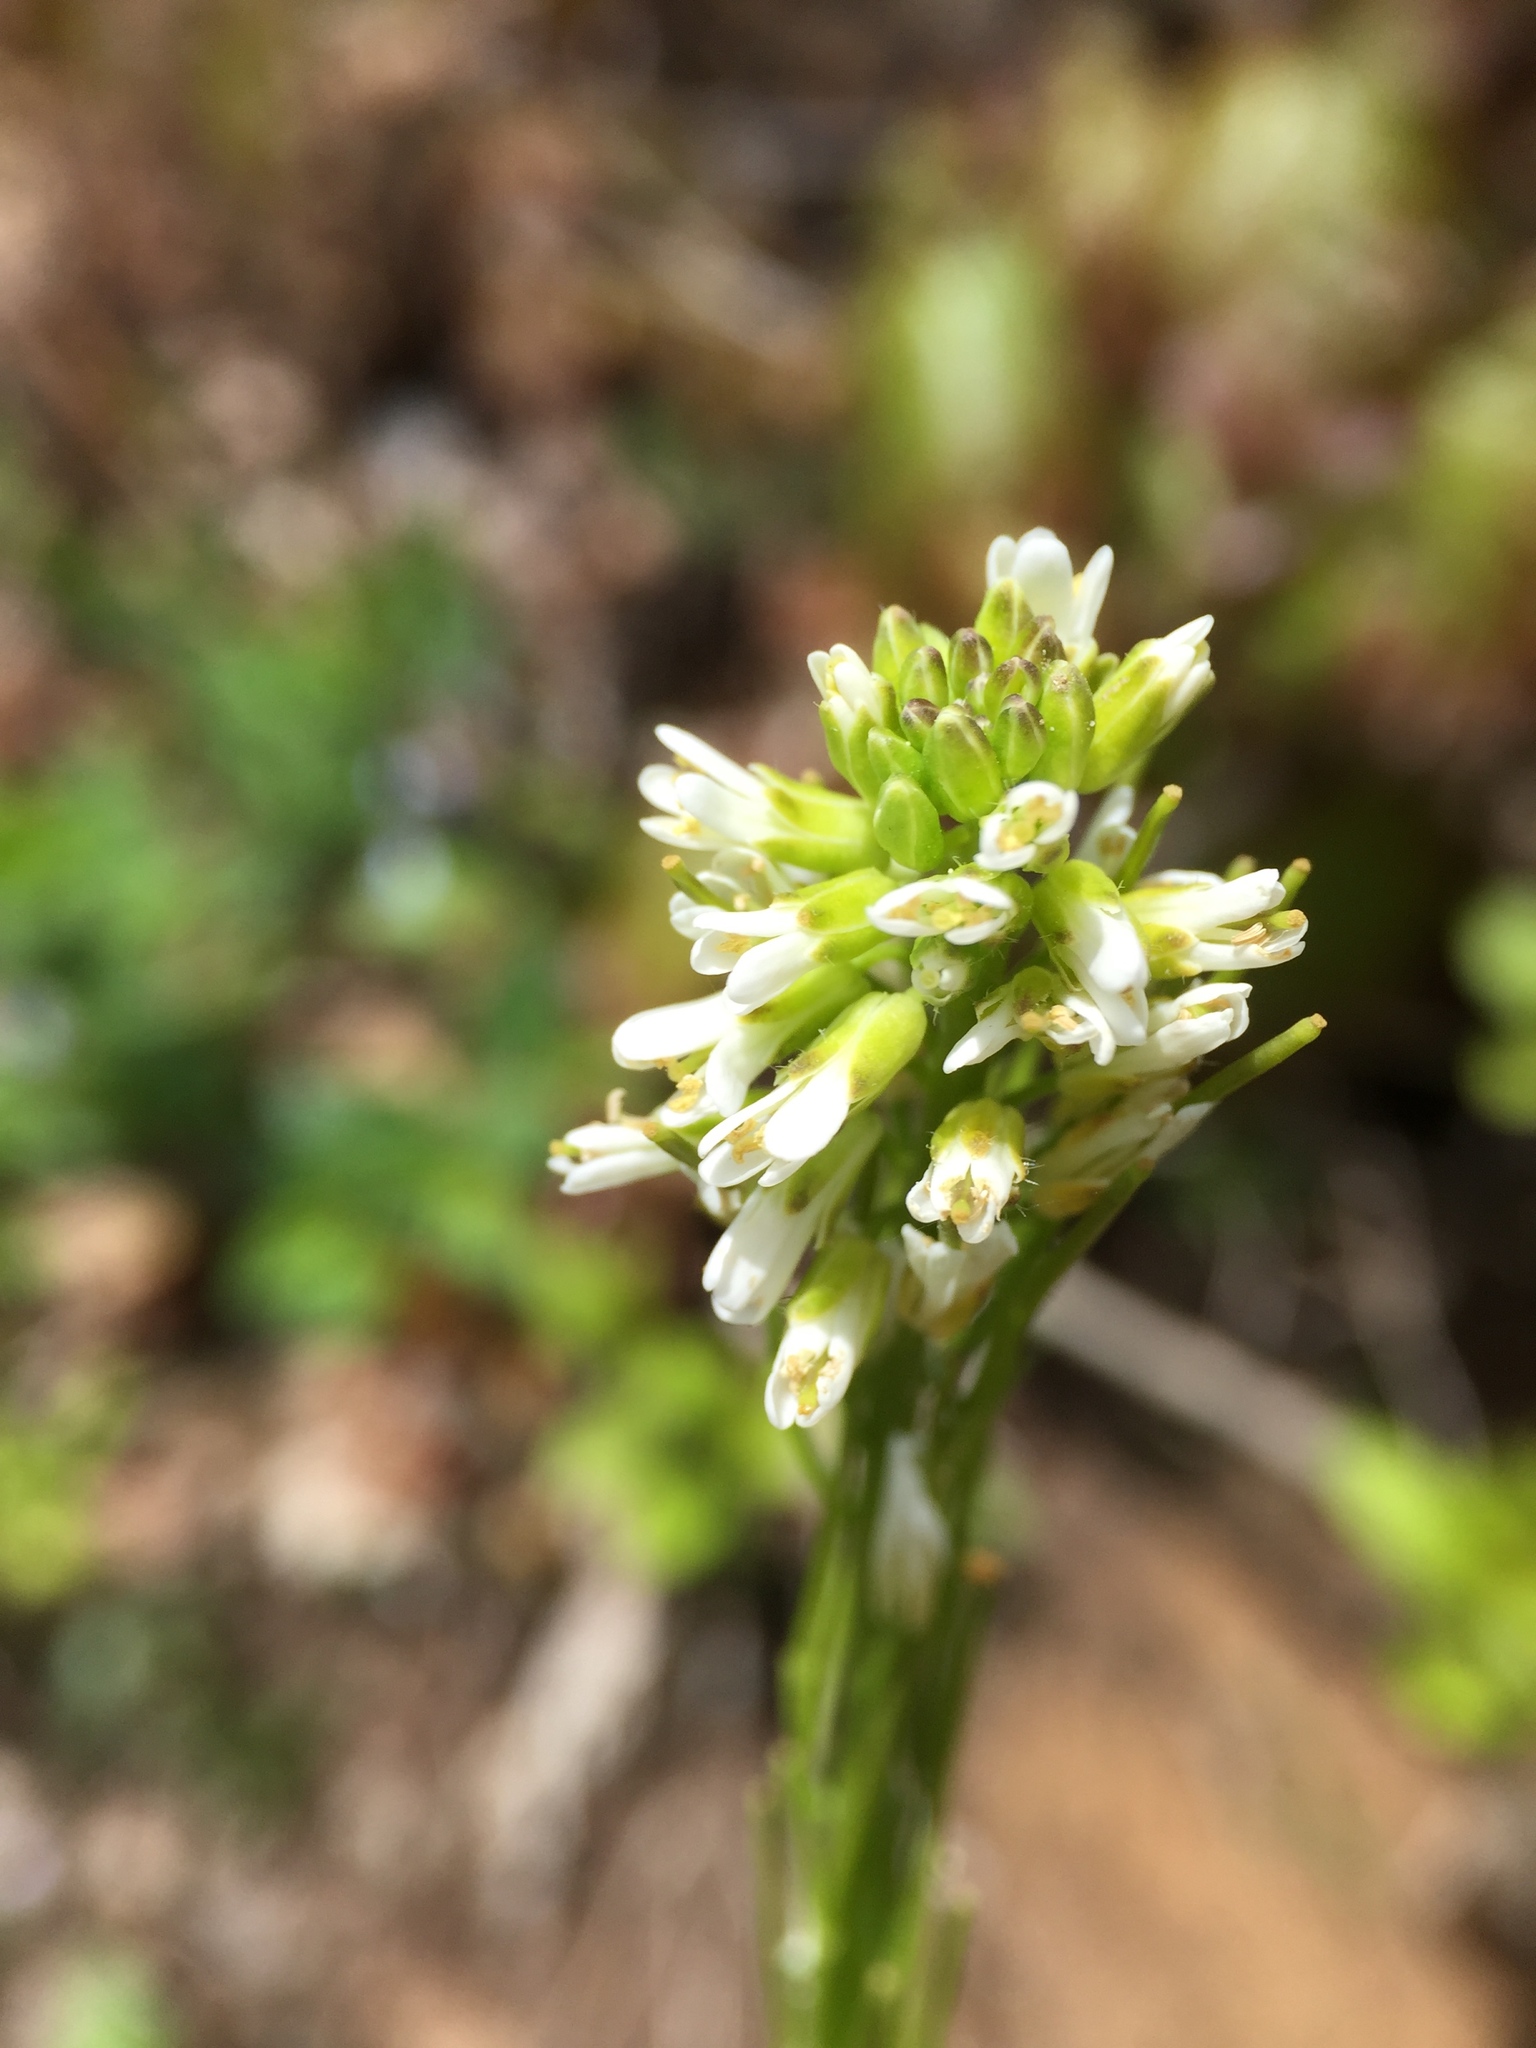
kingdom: Plantae
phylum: Tracheophyta
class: Magnoliopsida
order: Brassicales
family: Brassicaceae
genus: Arabis
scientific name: Arabis hirsuta
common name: Hairy rock-cress
